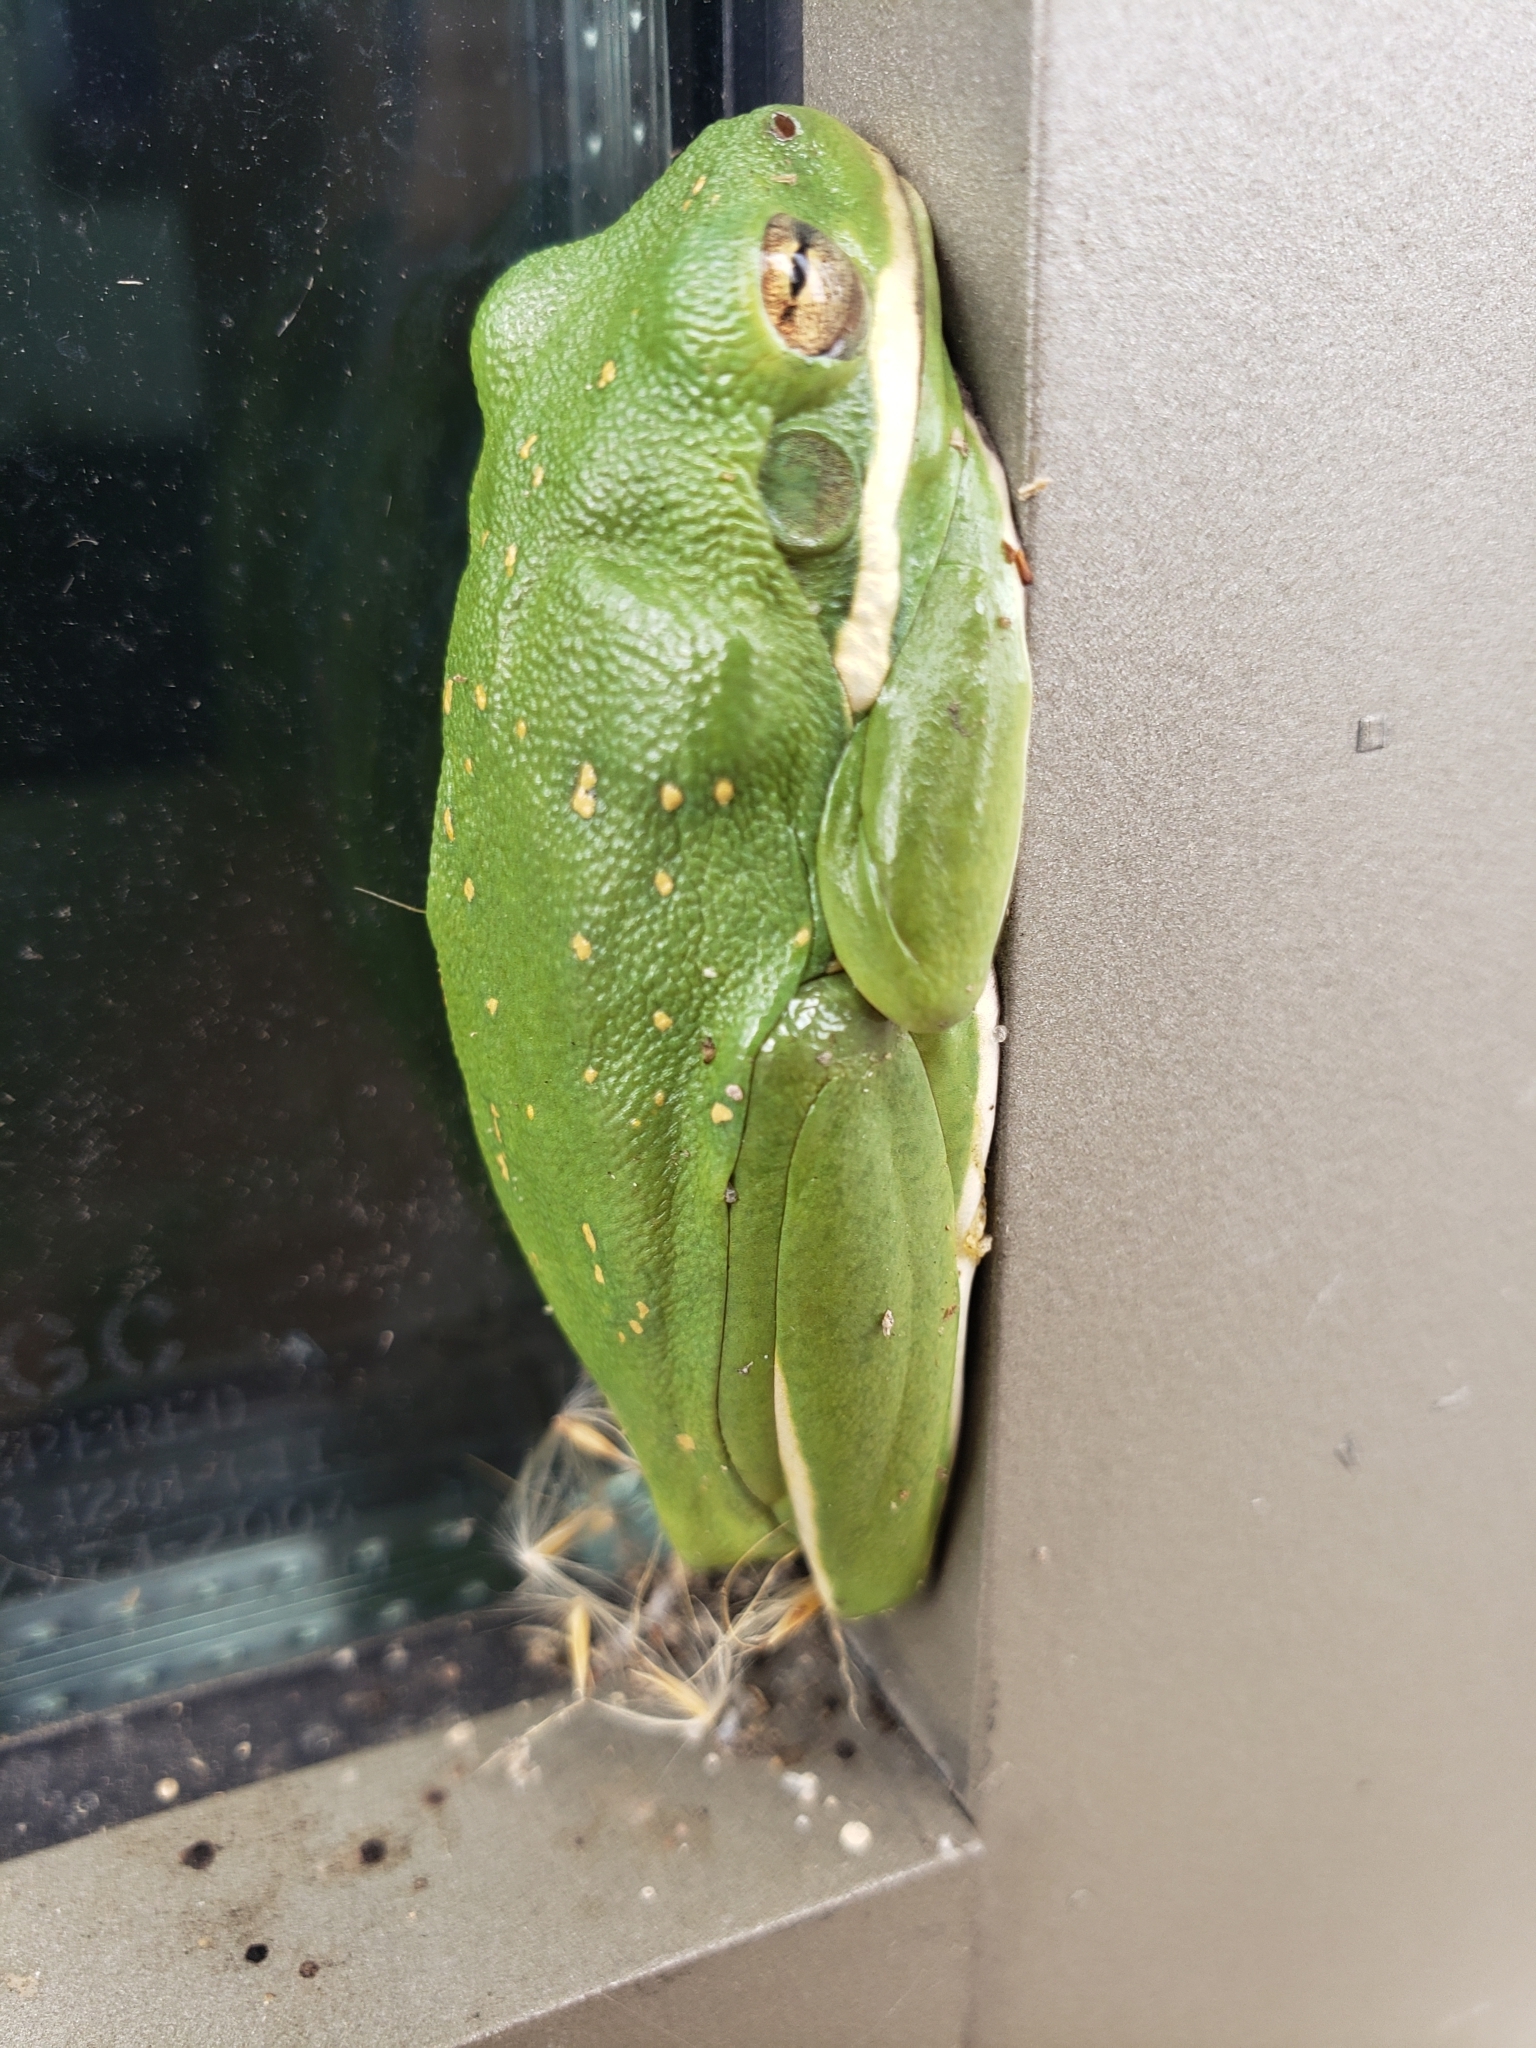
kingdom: Animalia
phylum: Chordata
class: Amphibia
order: Anura
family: Hylidae
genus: Dryophytes
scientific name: Dryophytes cinereus
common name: Green treefrog
